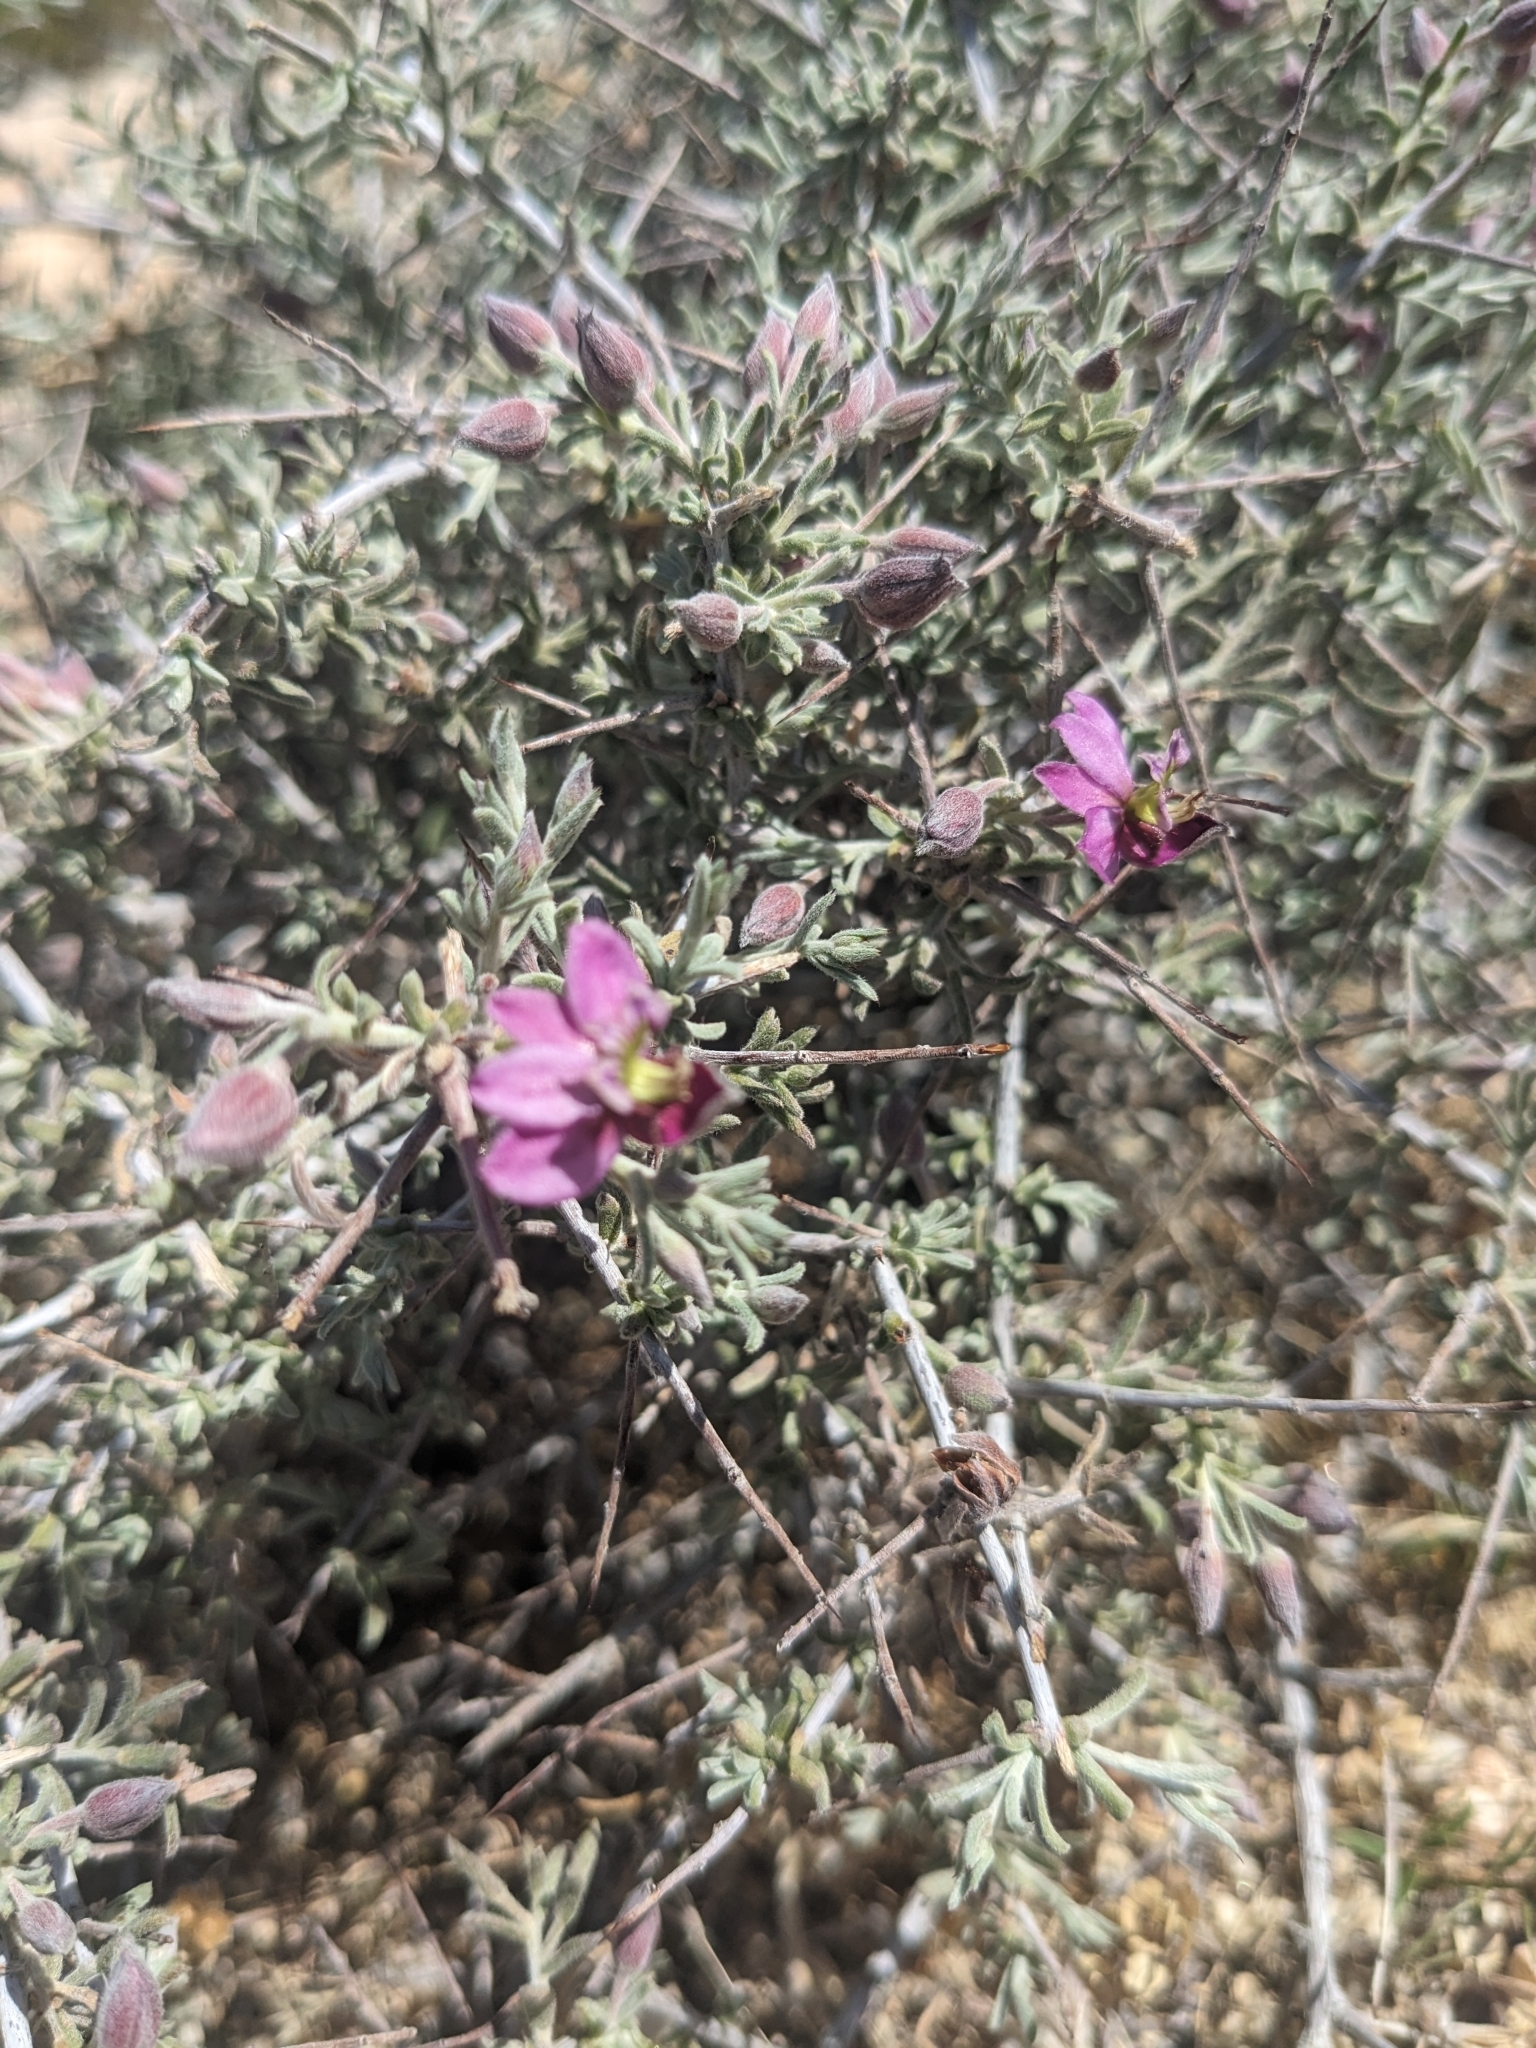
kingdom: Plantae
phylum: Tracheophyta
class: Magnoliopsida
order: Zygophyllales
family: Krameriaceae
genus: Krameria
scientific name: Krameria erecta
